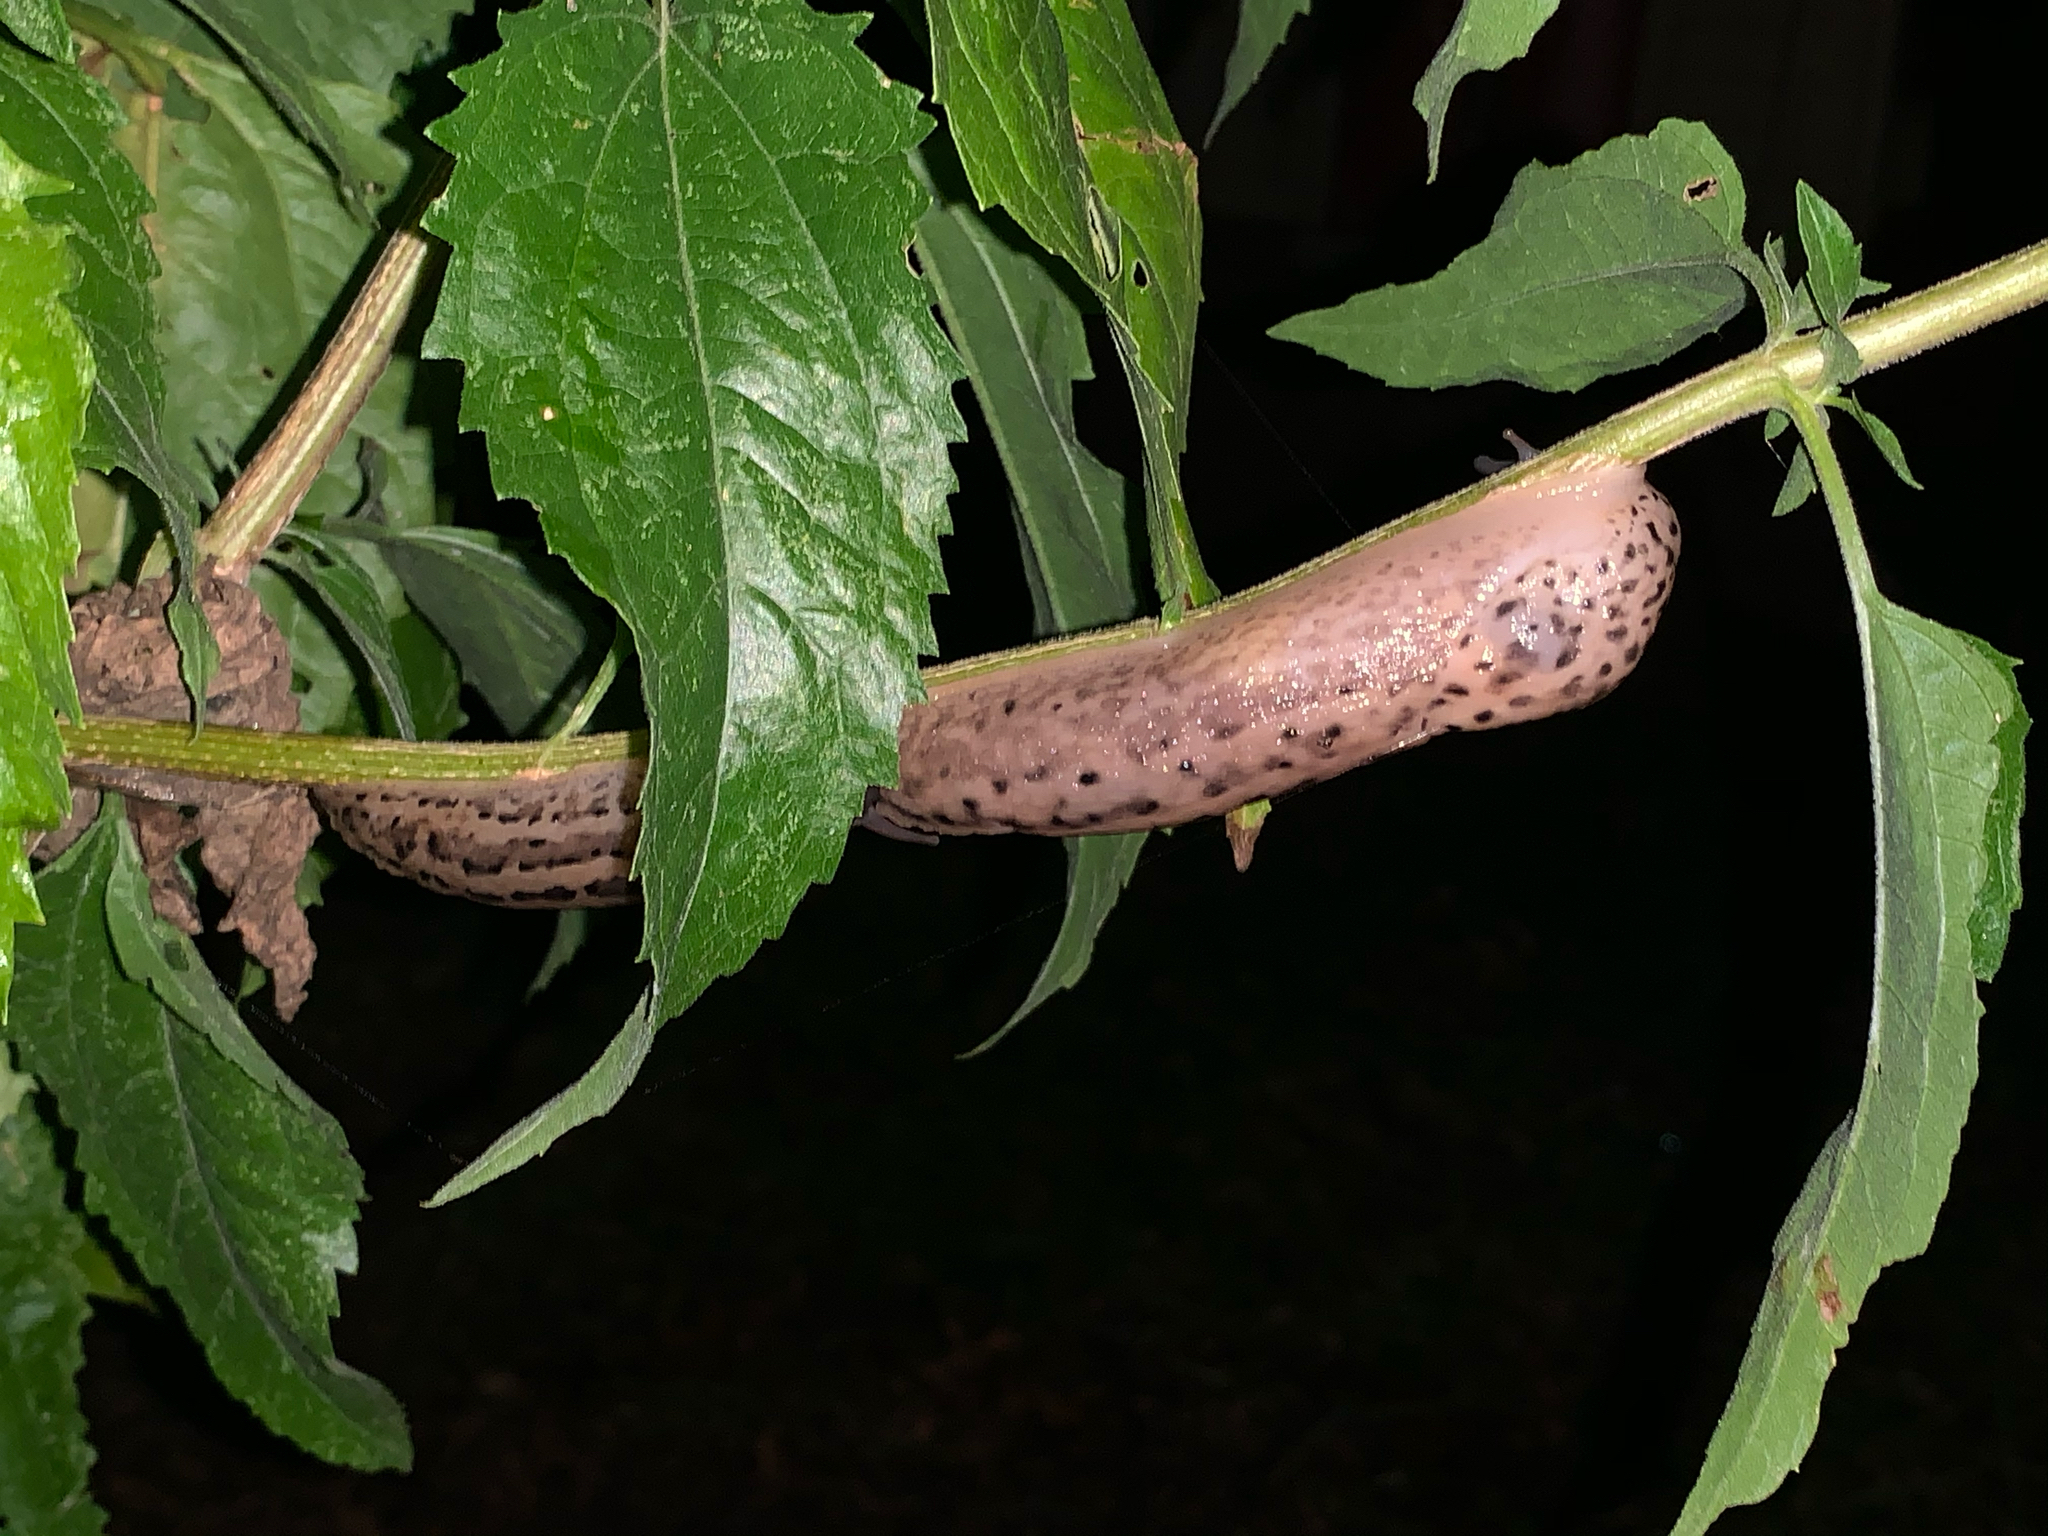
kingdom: Animalia
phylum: Mollusca
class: Gastropoda
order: Stylommatophora
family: Limacidae
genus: Limax
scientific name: Limax maximus
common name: Great grey slug
